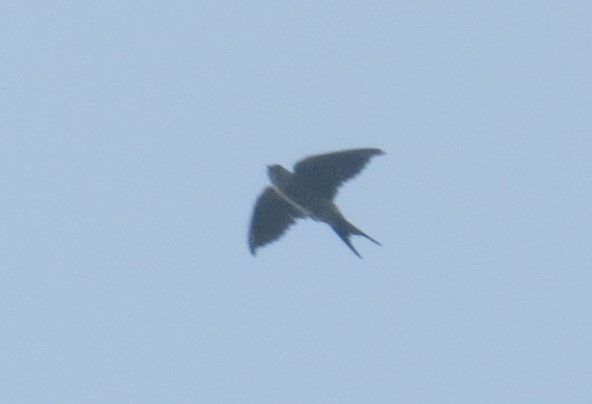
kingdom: Animalia
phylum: Chordata
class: Aves
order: Passeriformes
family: Hirundinidae
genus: Cecropis
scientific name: Cecropis daurica
